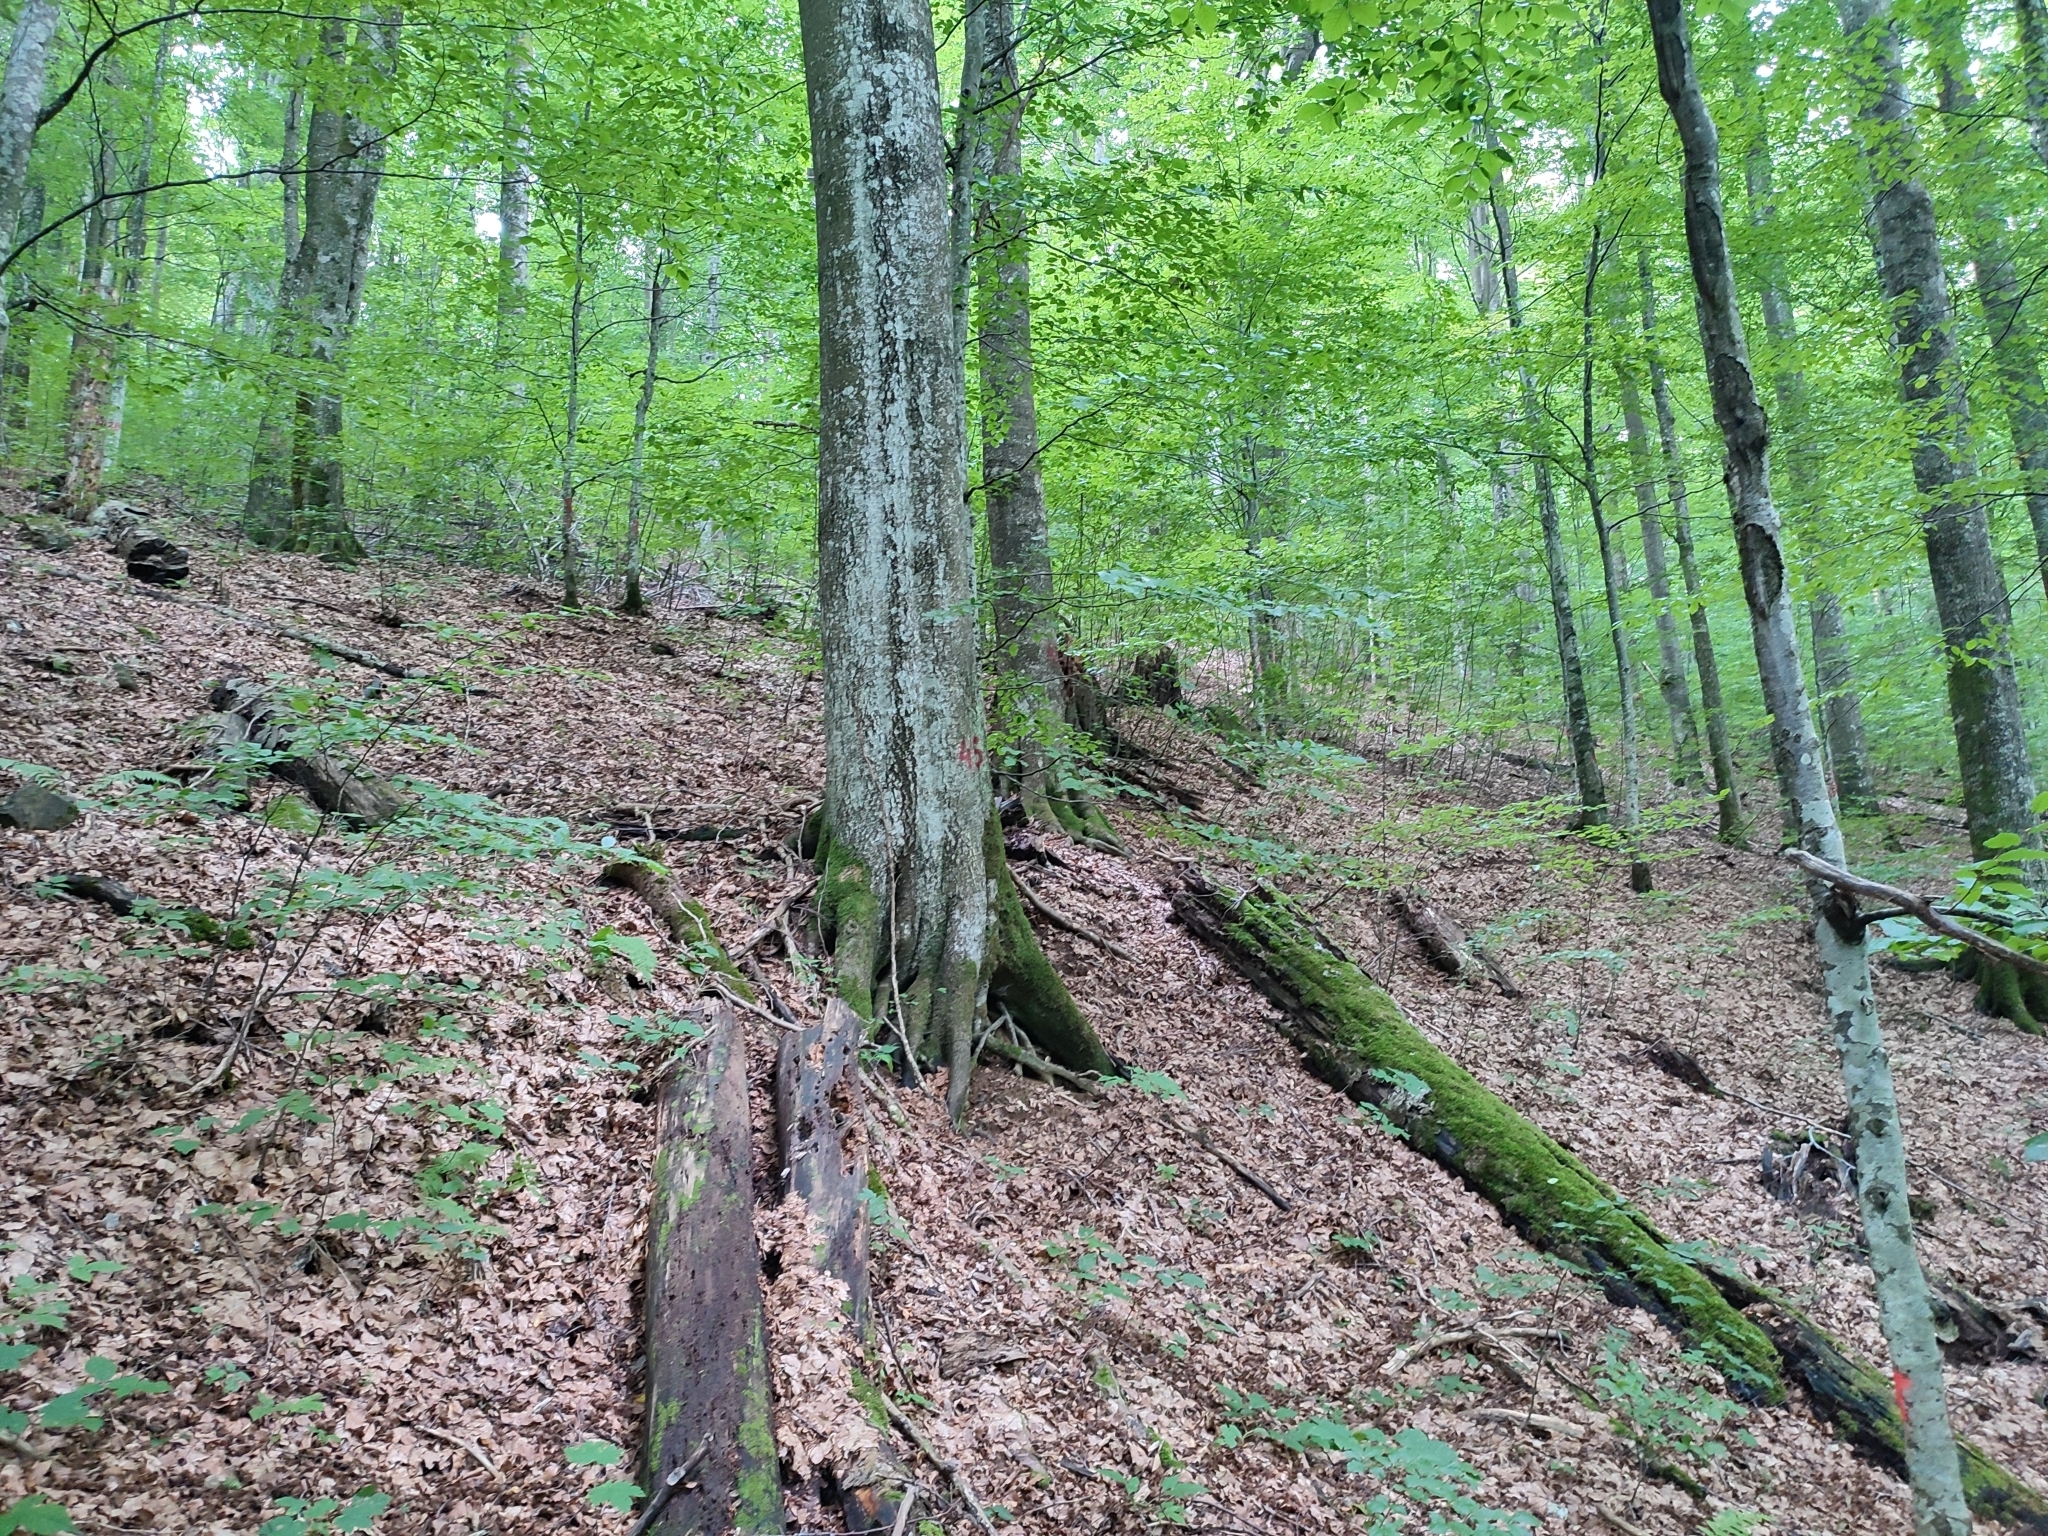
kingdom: Plantae
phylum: Tracheophyta
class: Magnoliopsida
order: Fagales
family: Fagaceae
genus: Fagus
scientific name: Fagus sylvatica
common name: Beech
